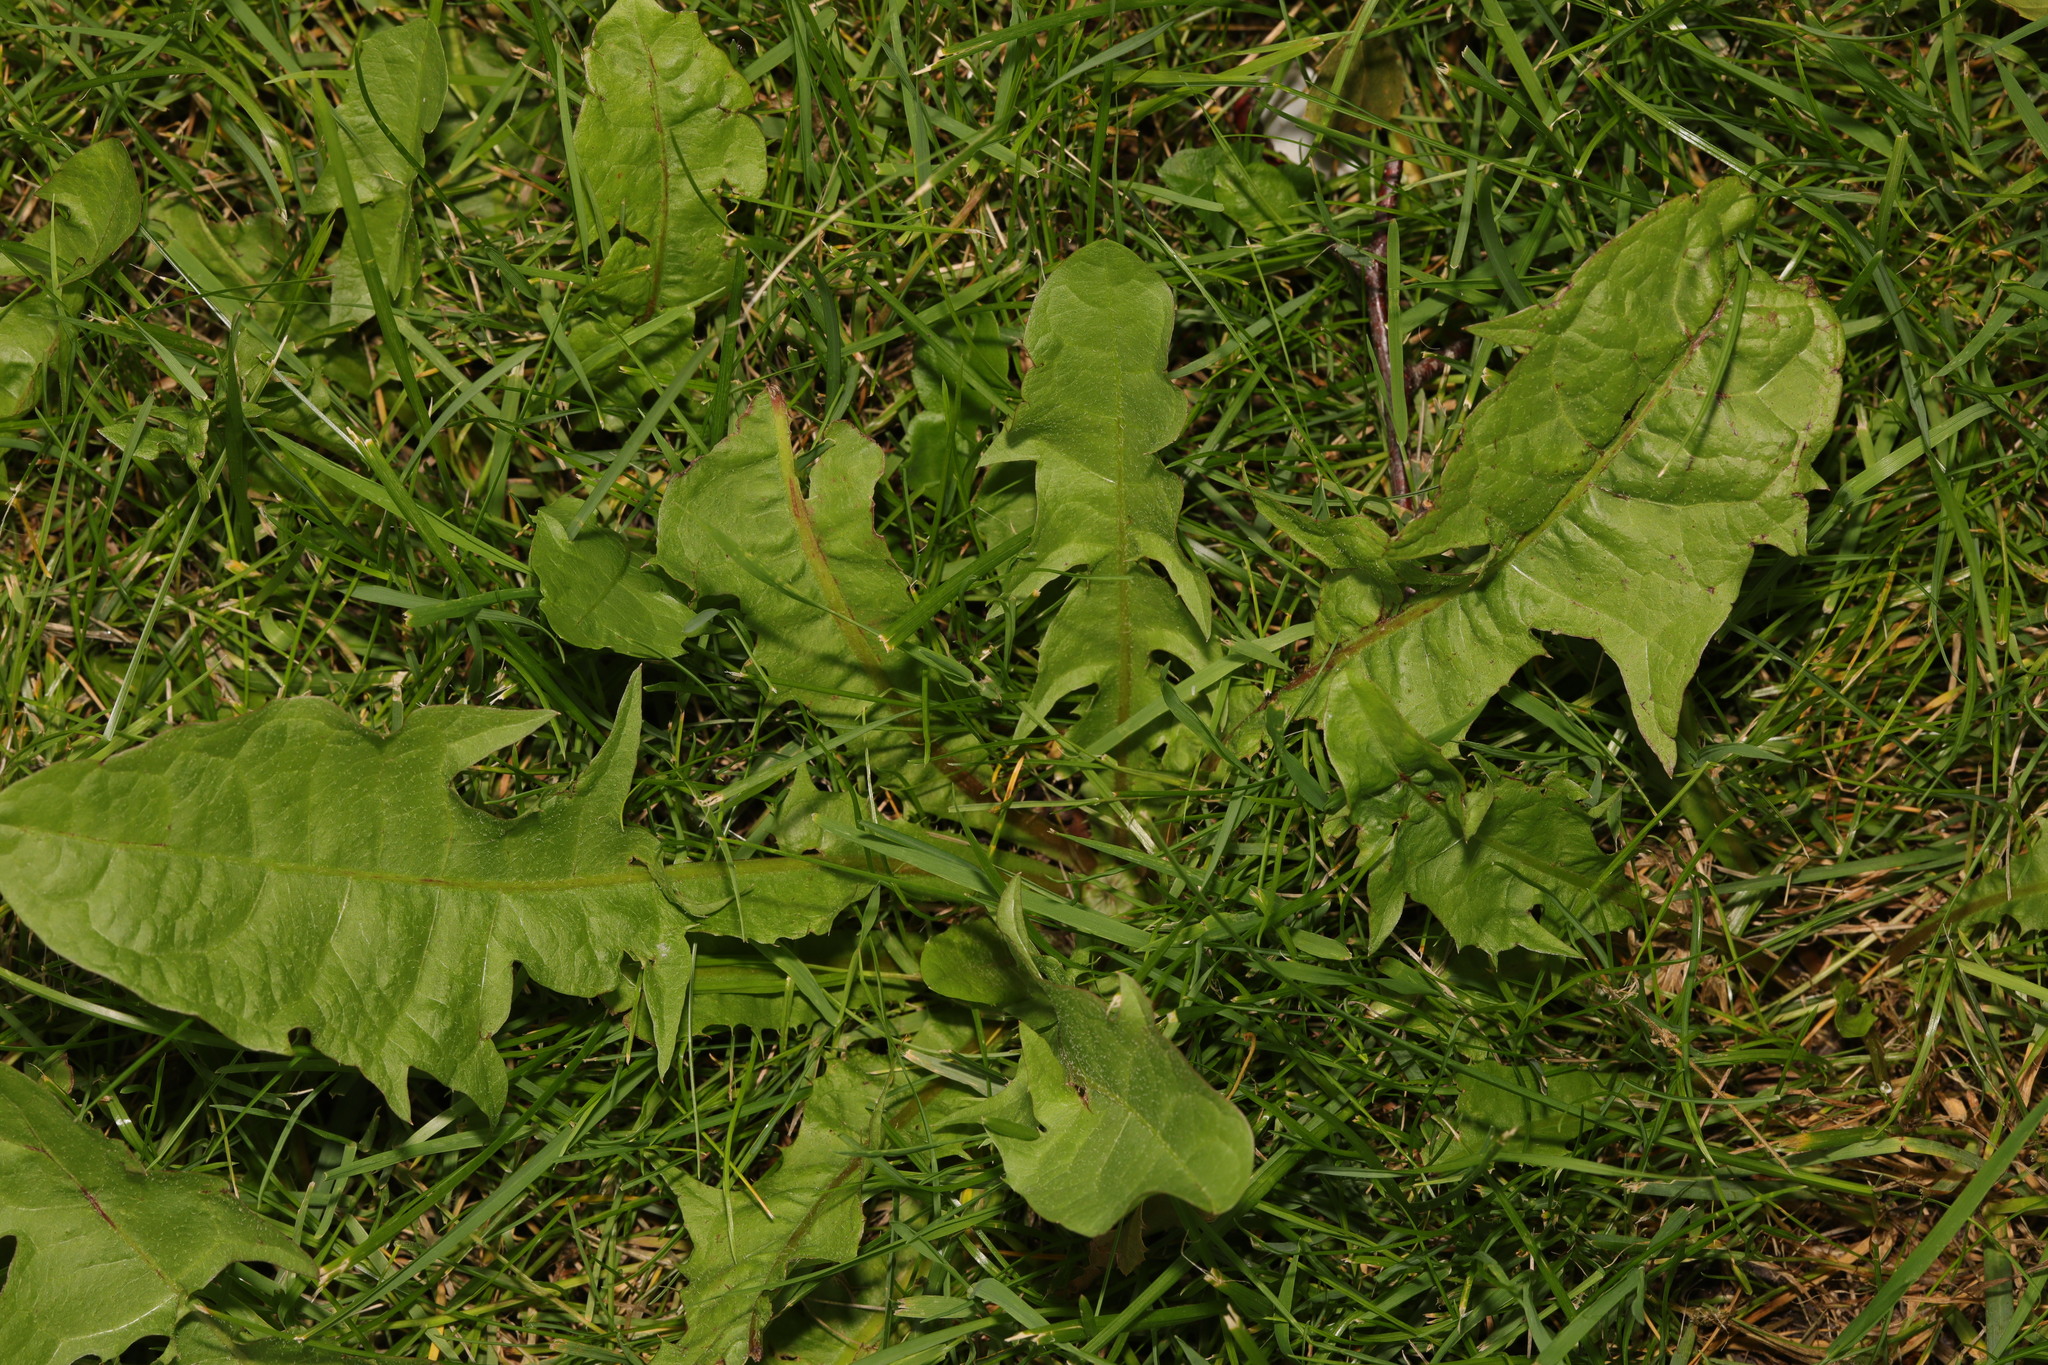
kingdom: Plantae
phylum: Tracheophyta
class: Magnoliopsida
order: Asterales
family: Asteraceae
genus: Taraxacum
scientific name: Taraxacum officinale
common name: Common dandelion
